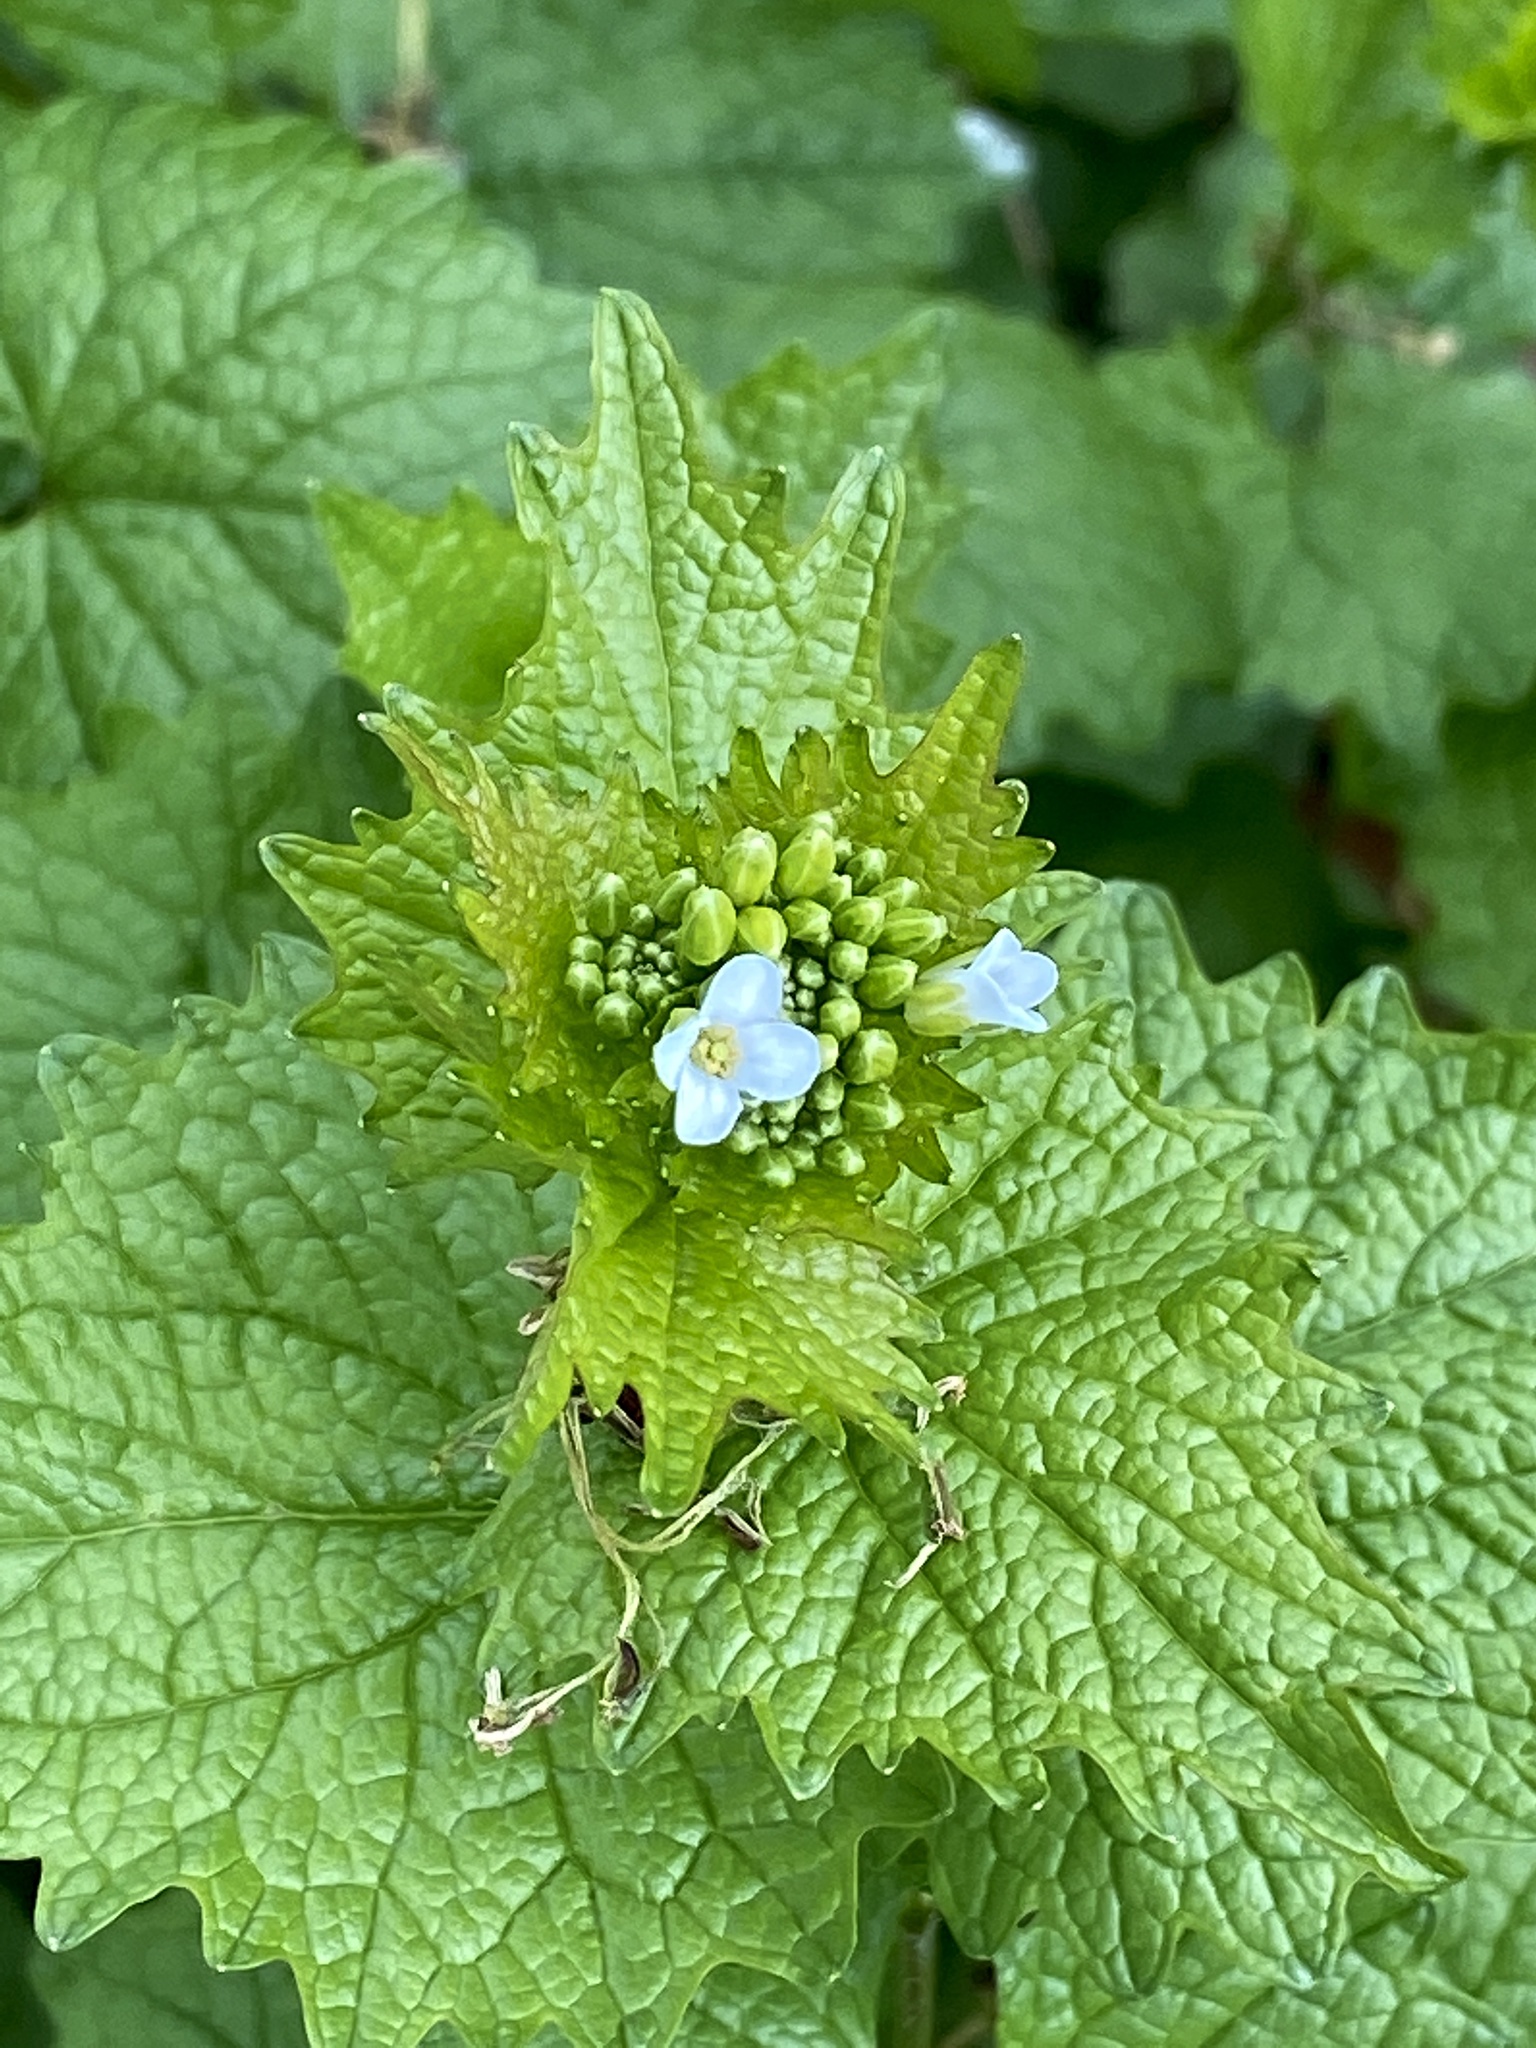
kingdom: Plantae
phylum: Tracheophyta
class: Magnoliopsida
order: Brassicales
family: Brassicaceae
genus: Alliaria
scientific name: Alliaria petiolata
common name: Garlic mustard
